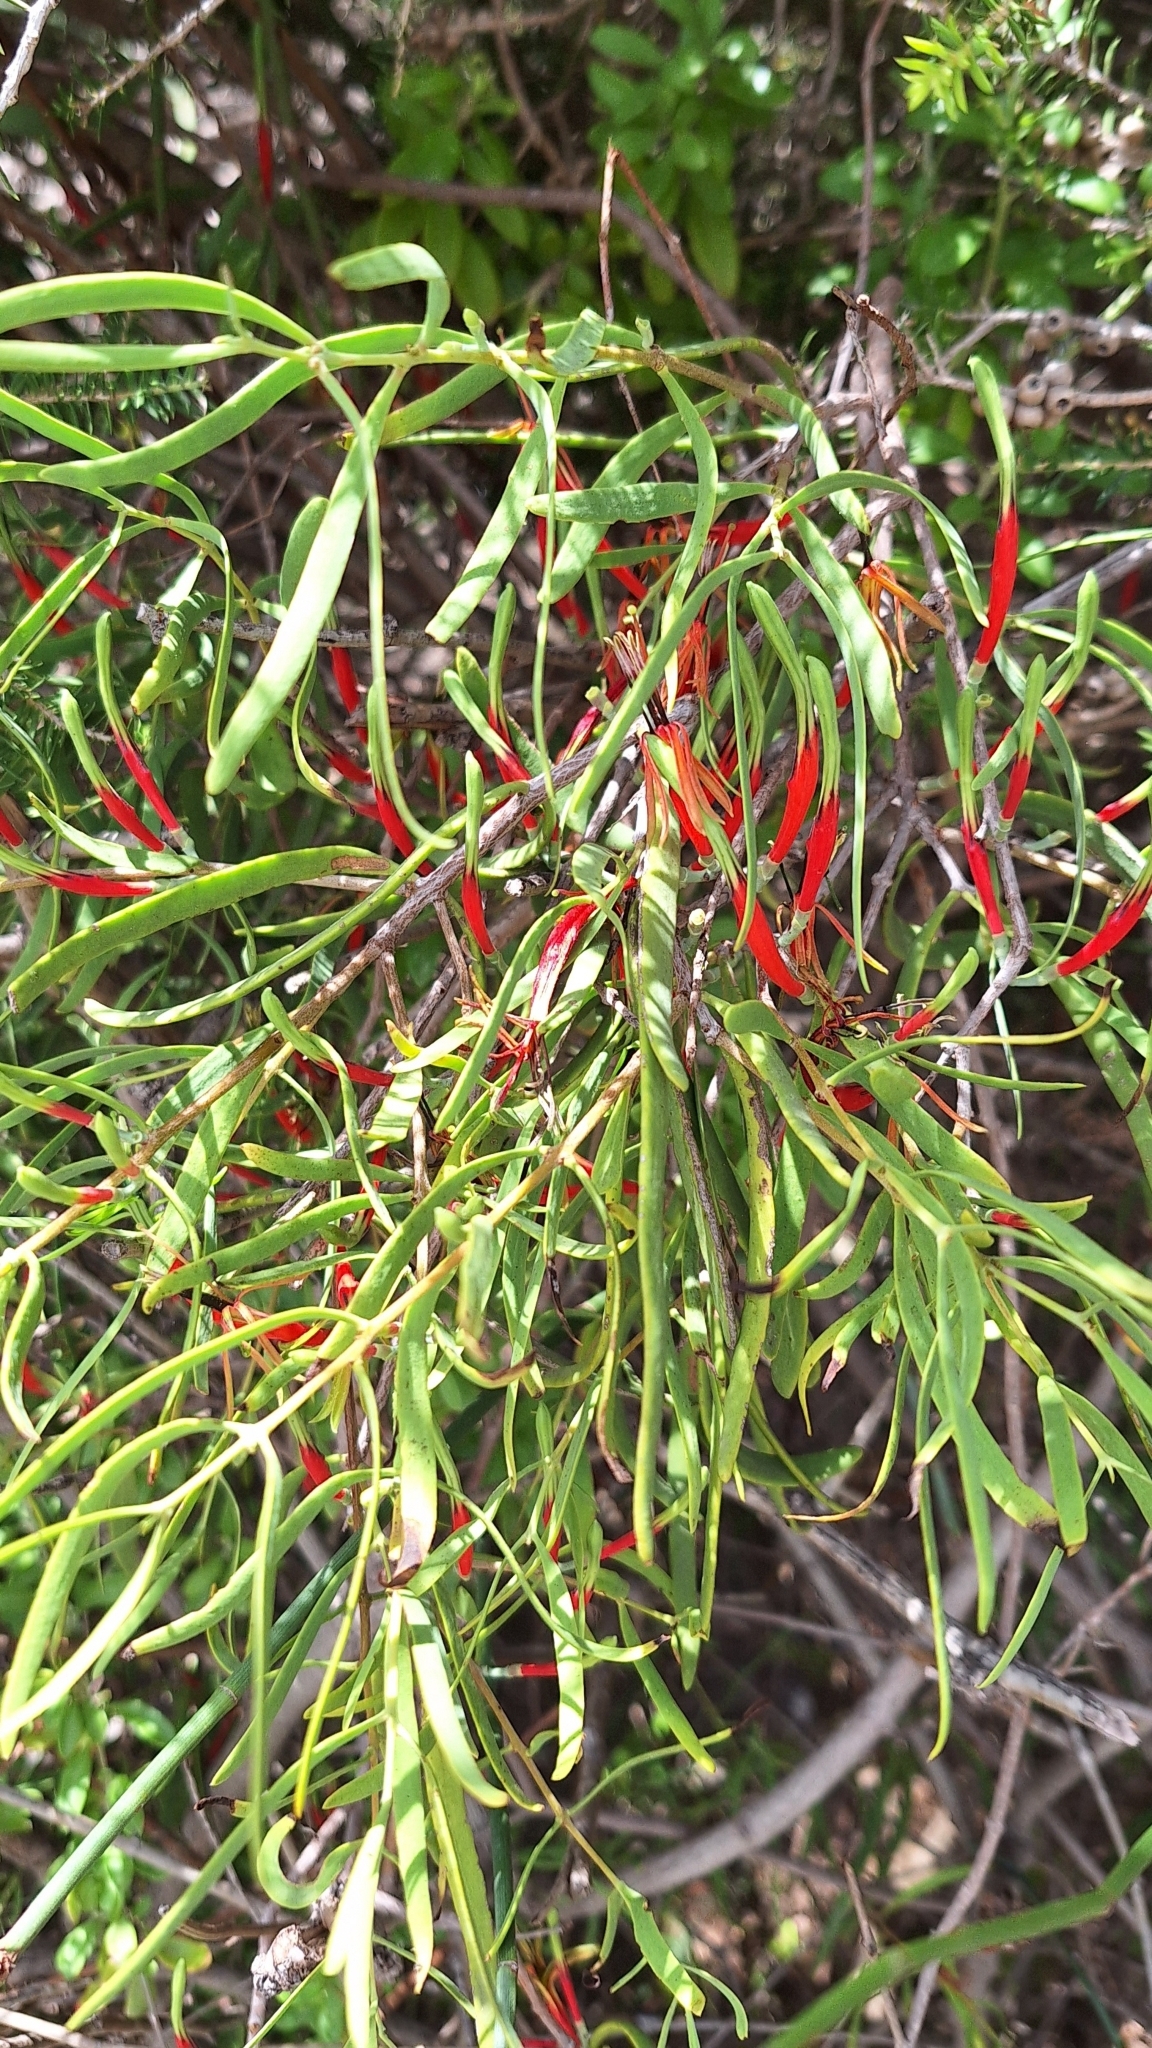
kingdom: Plantae
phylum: Tracheophyta
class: Magnoliopsida
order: Santalales
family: Loranthaceae
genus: Lysiana
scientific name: Lysiana exocarpi
